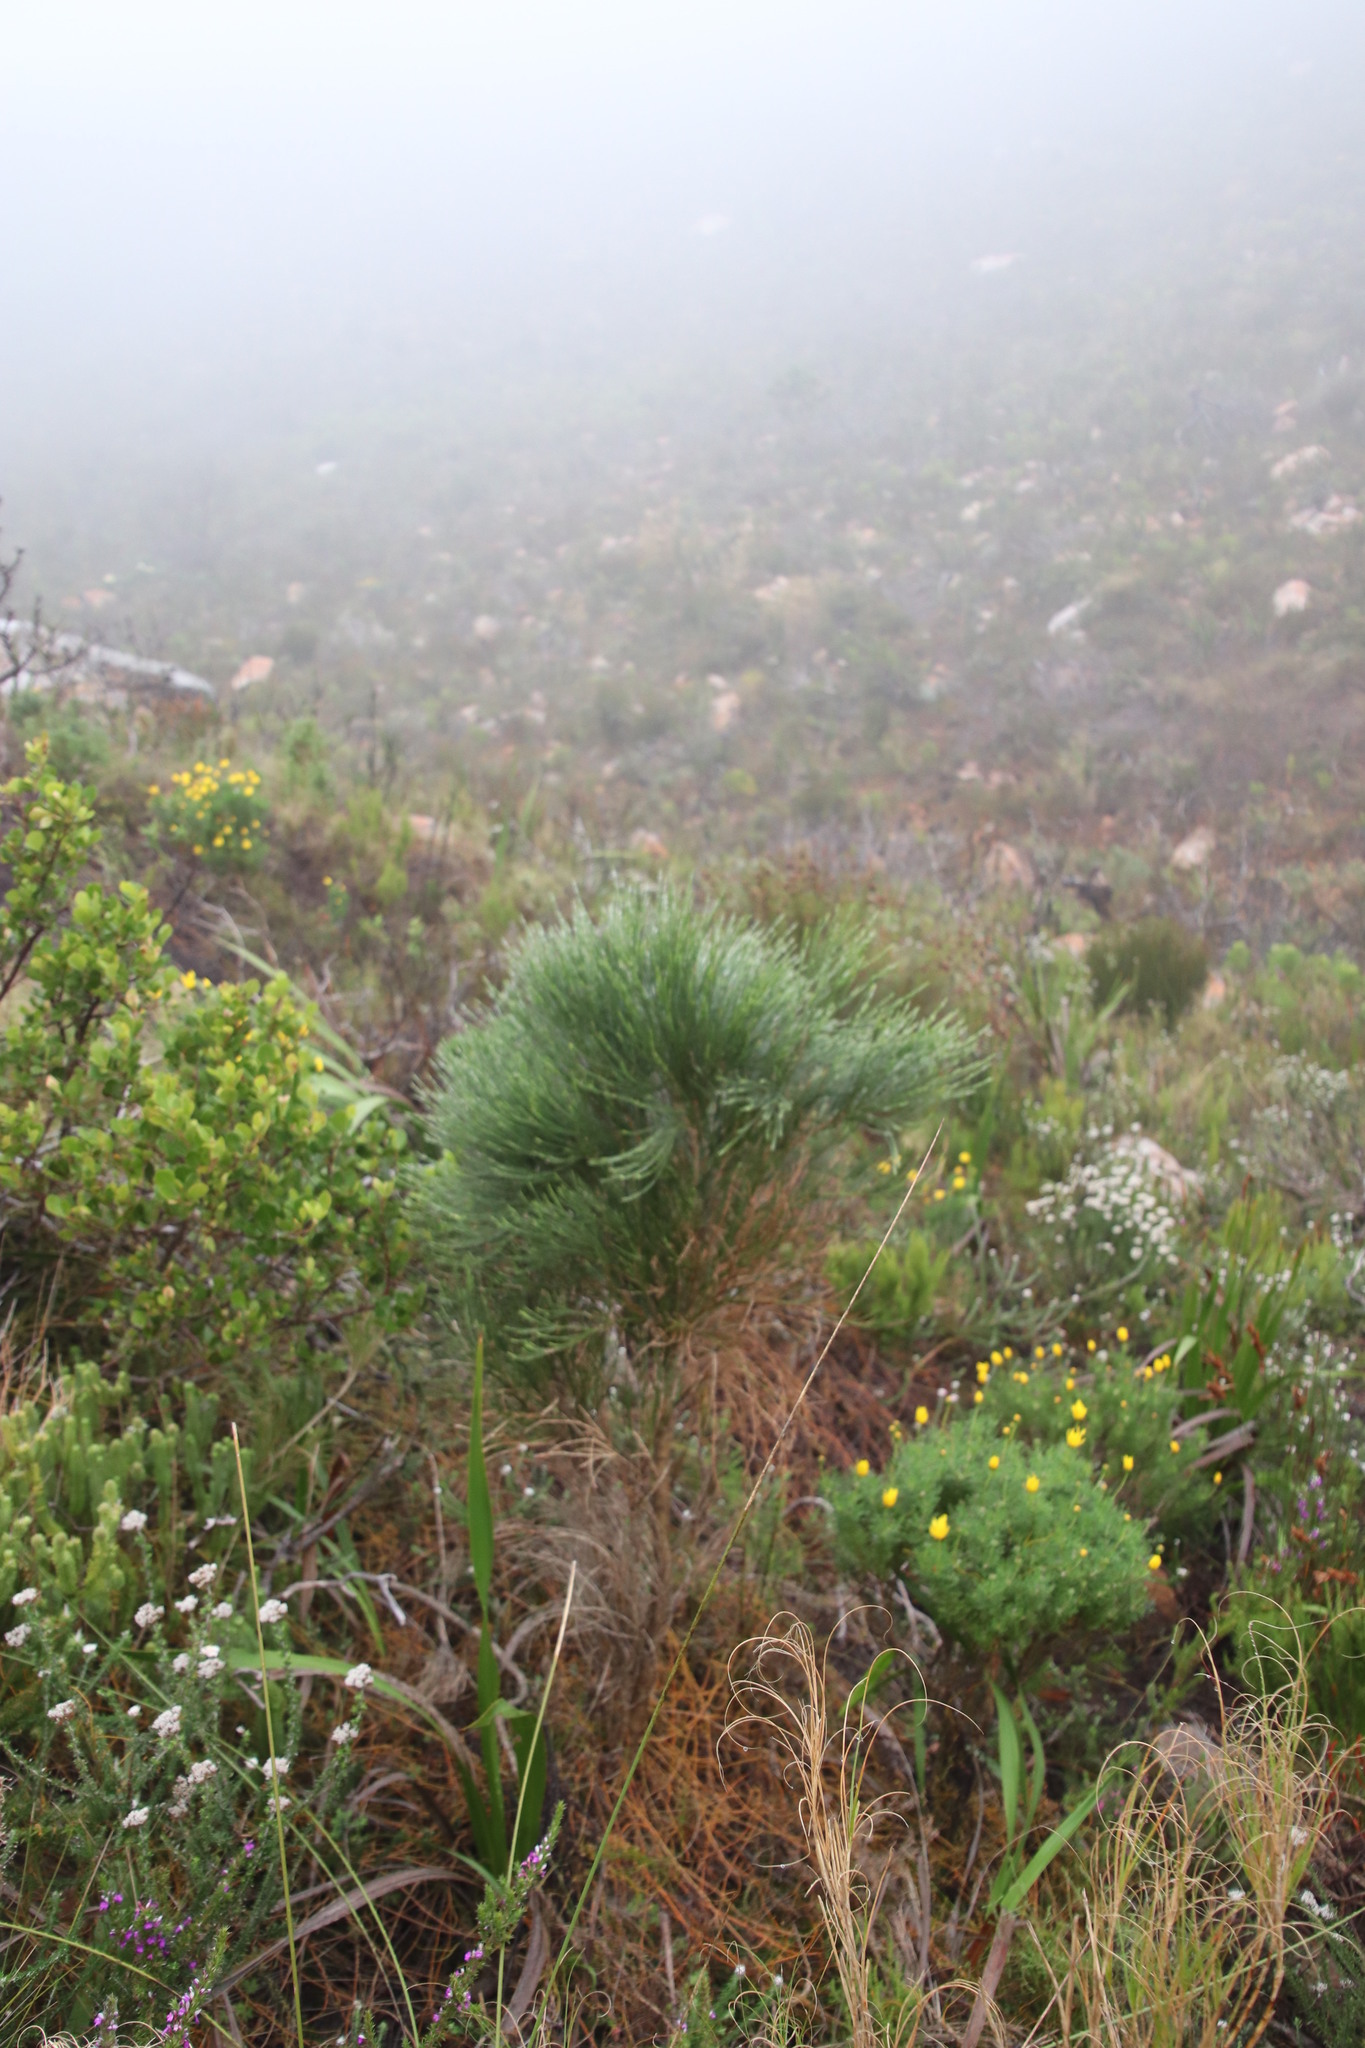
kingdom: Plantae
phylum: Tracheophyta
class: Magnoliopsida
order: Fabales
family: Fabaceae
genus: Psoralea
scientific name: Psoralea aphylla
